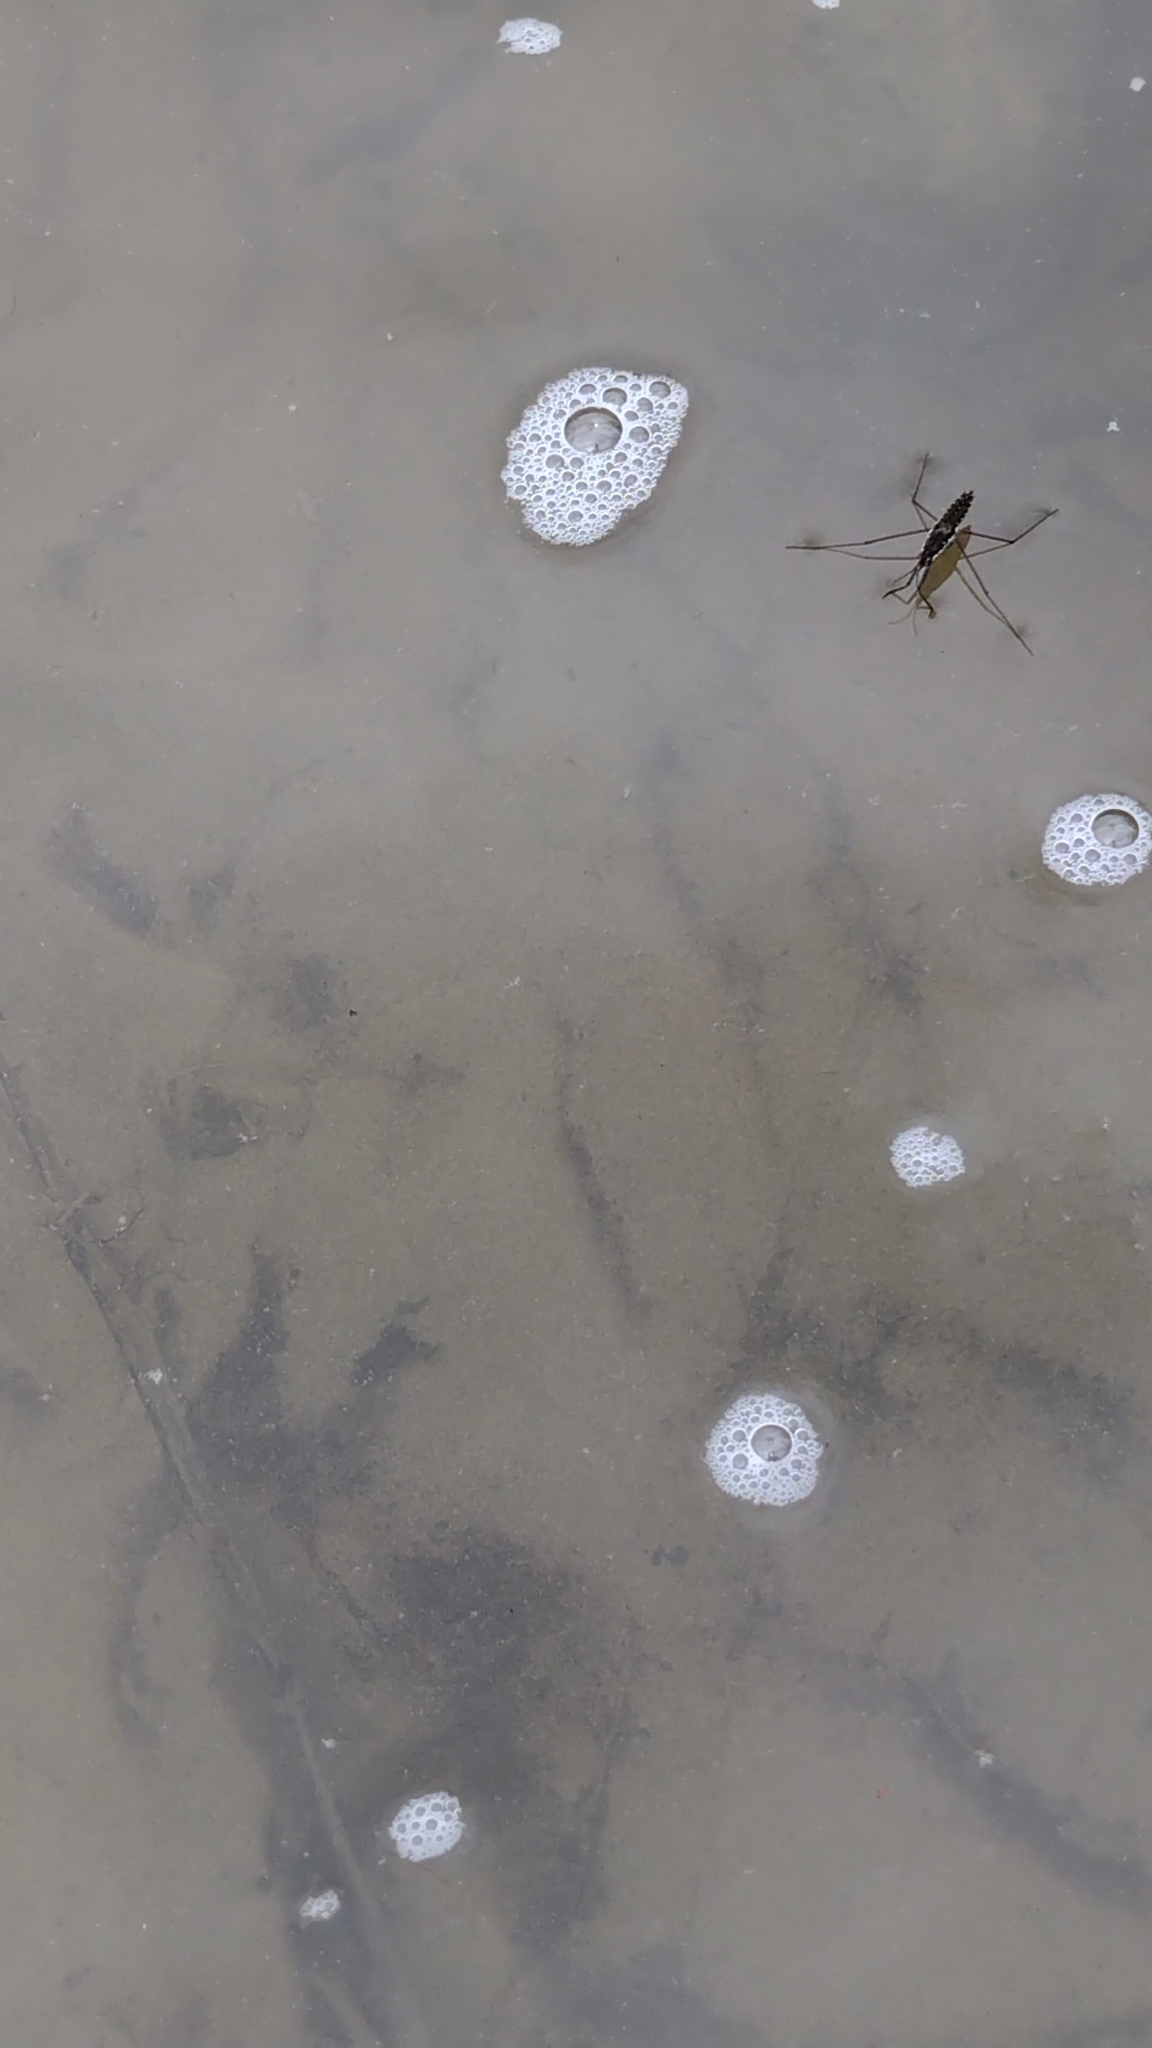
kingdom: Animalia
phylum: Arthropoda
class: Insecta
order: Hemiptera
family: Gerridae
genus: Aquarius
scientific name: Aquarius remigis
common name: Common water strider
